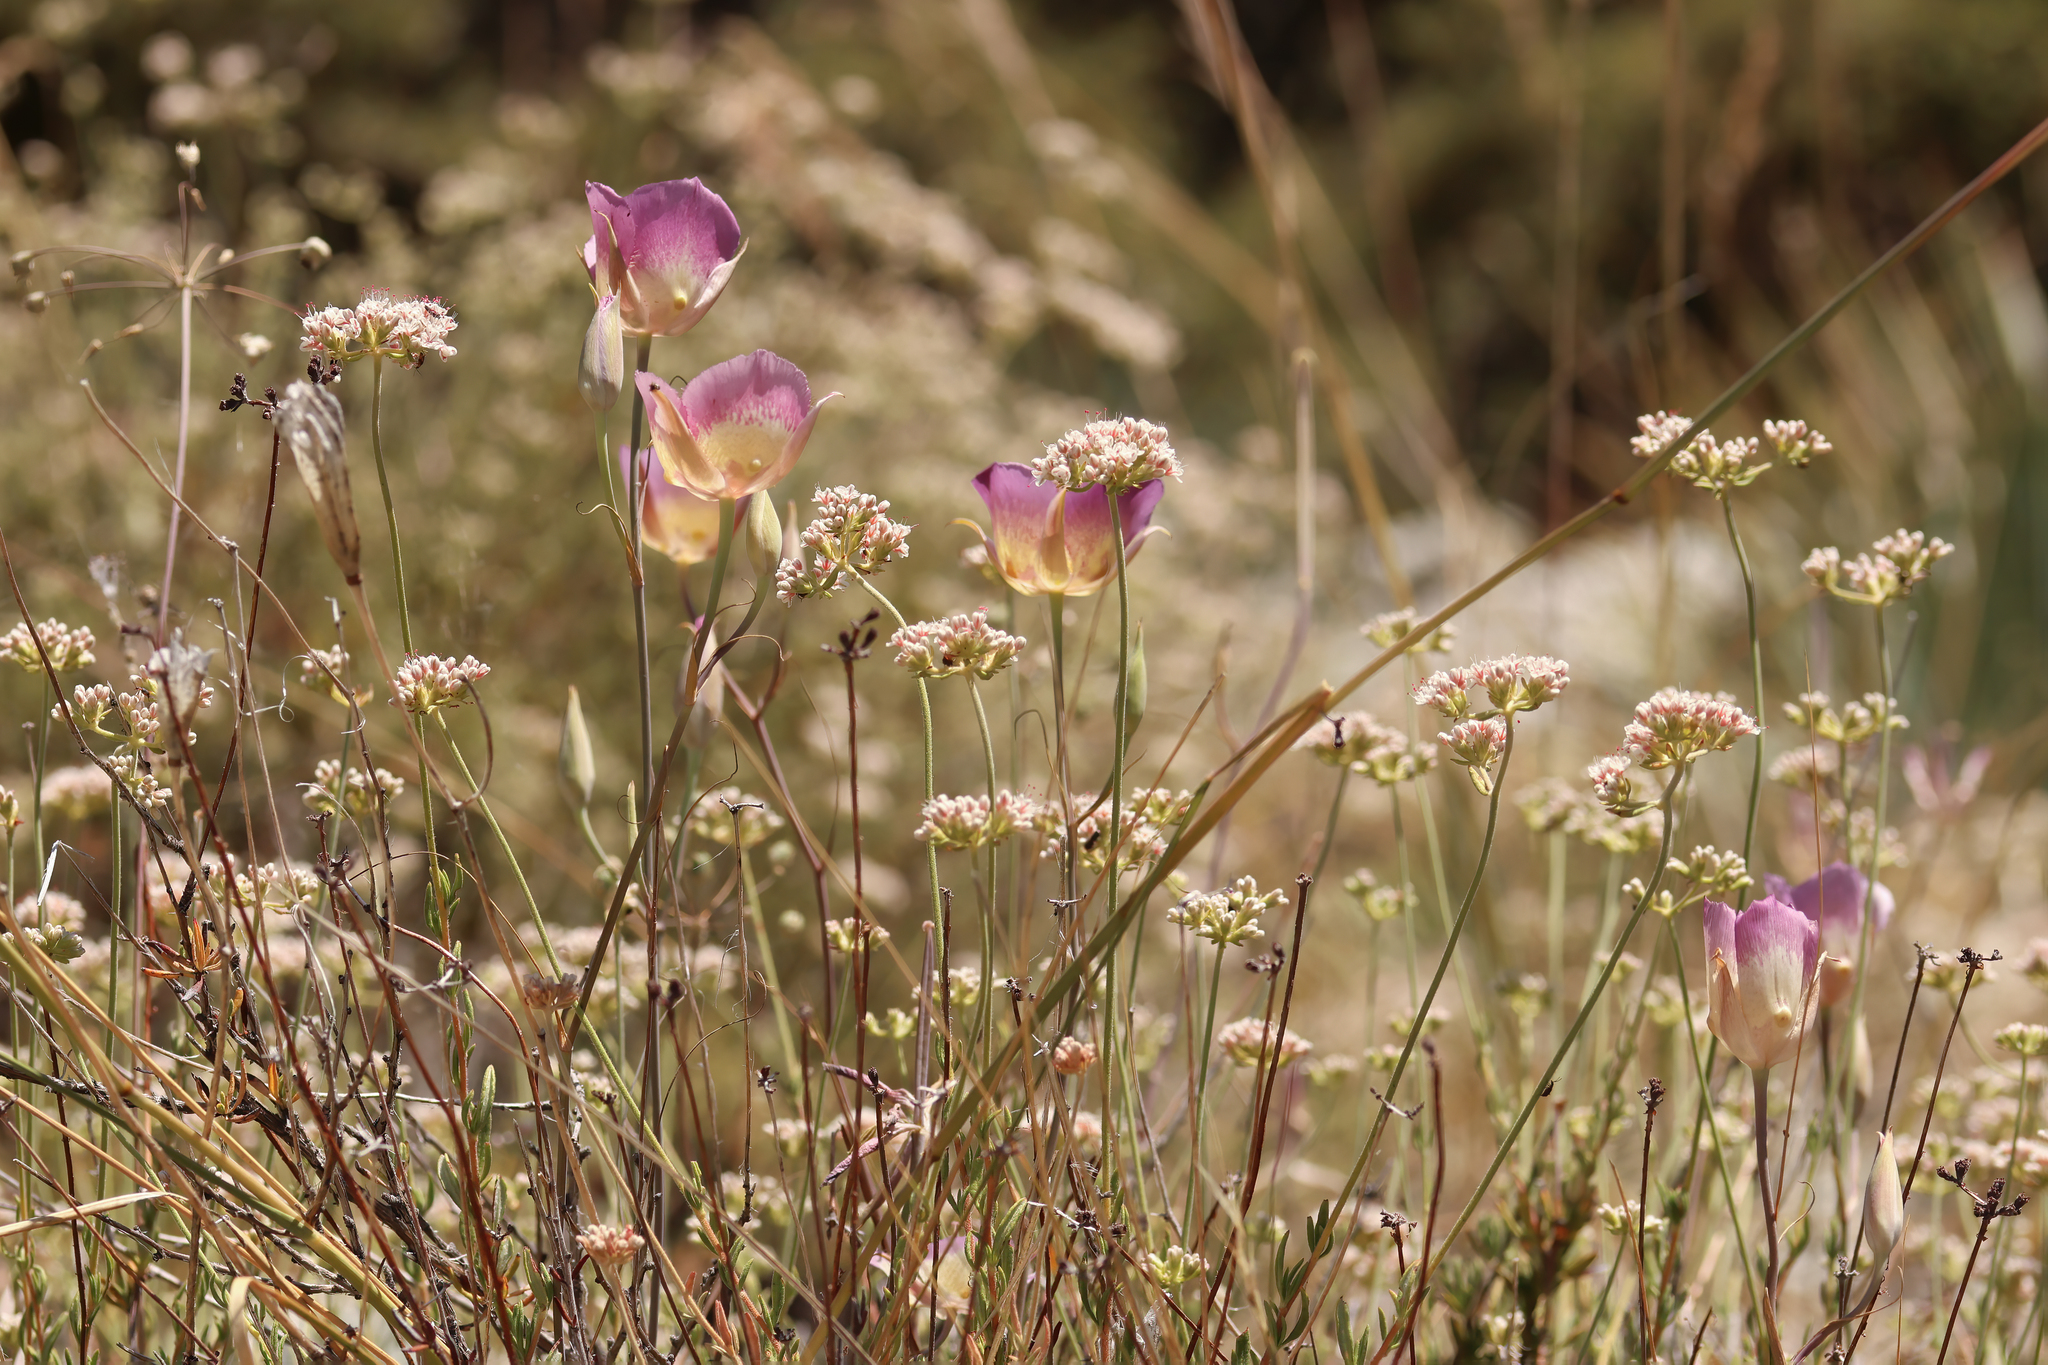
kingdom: Plantae
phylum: Tracheophyta
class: Liliopsida
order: Liliales
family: Liliaceae
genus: Calochortus
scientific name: Calochortus plummerae
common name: Plummer's mariposa-lily
